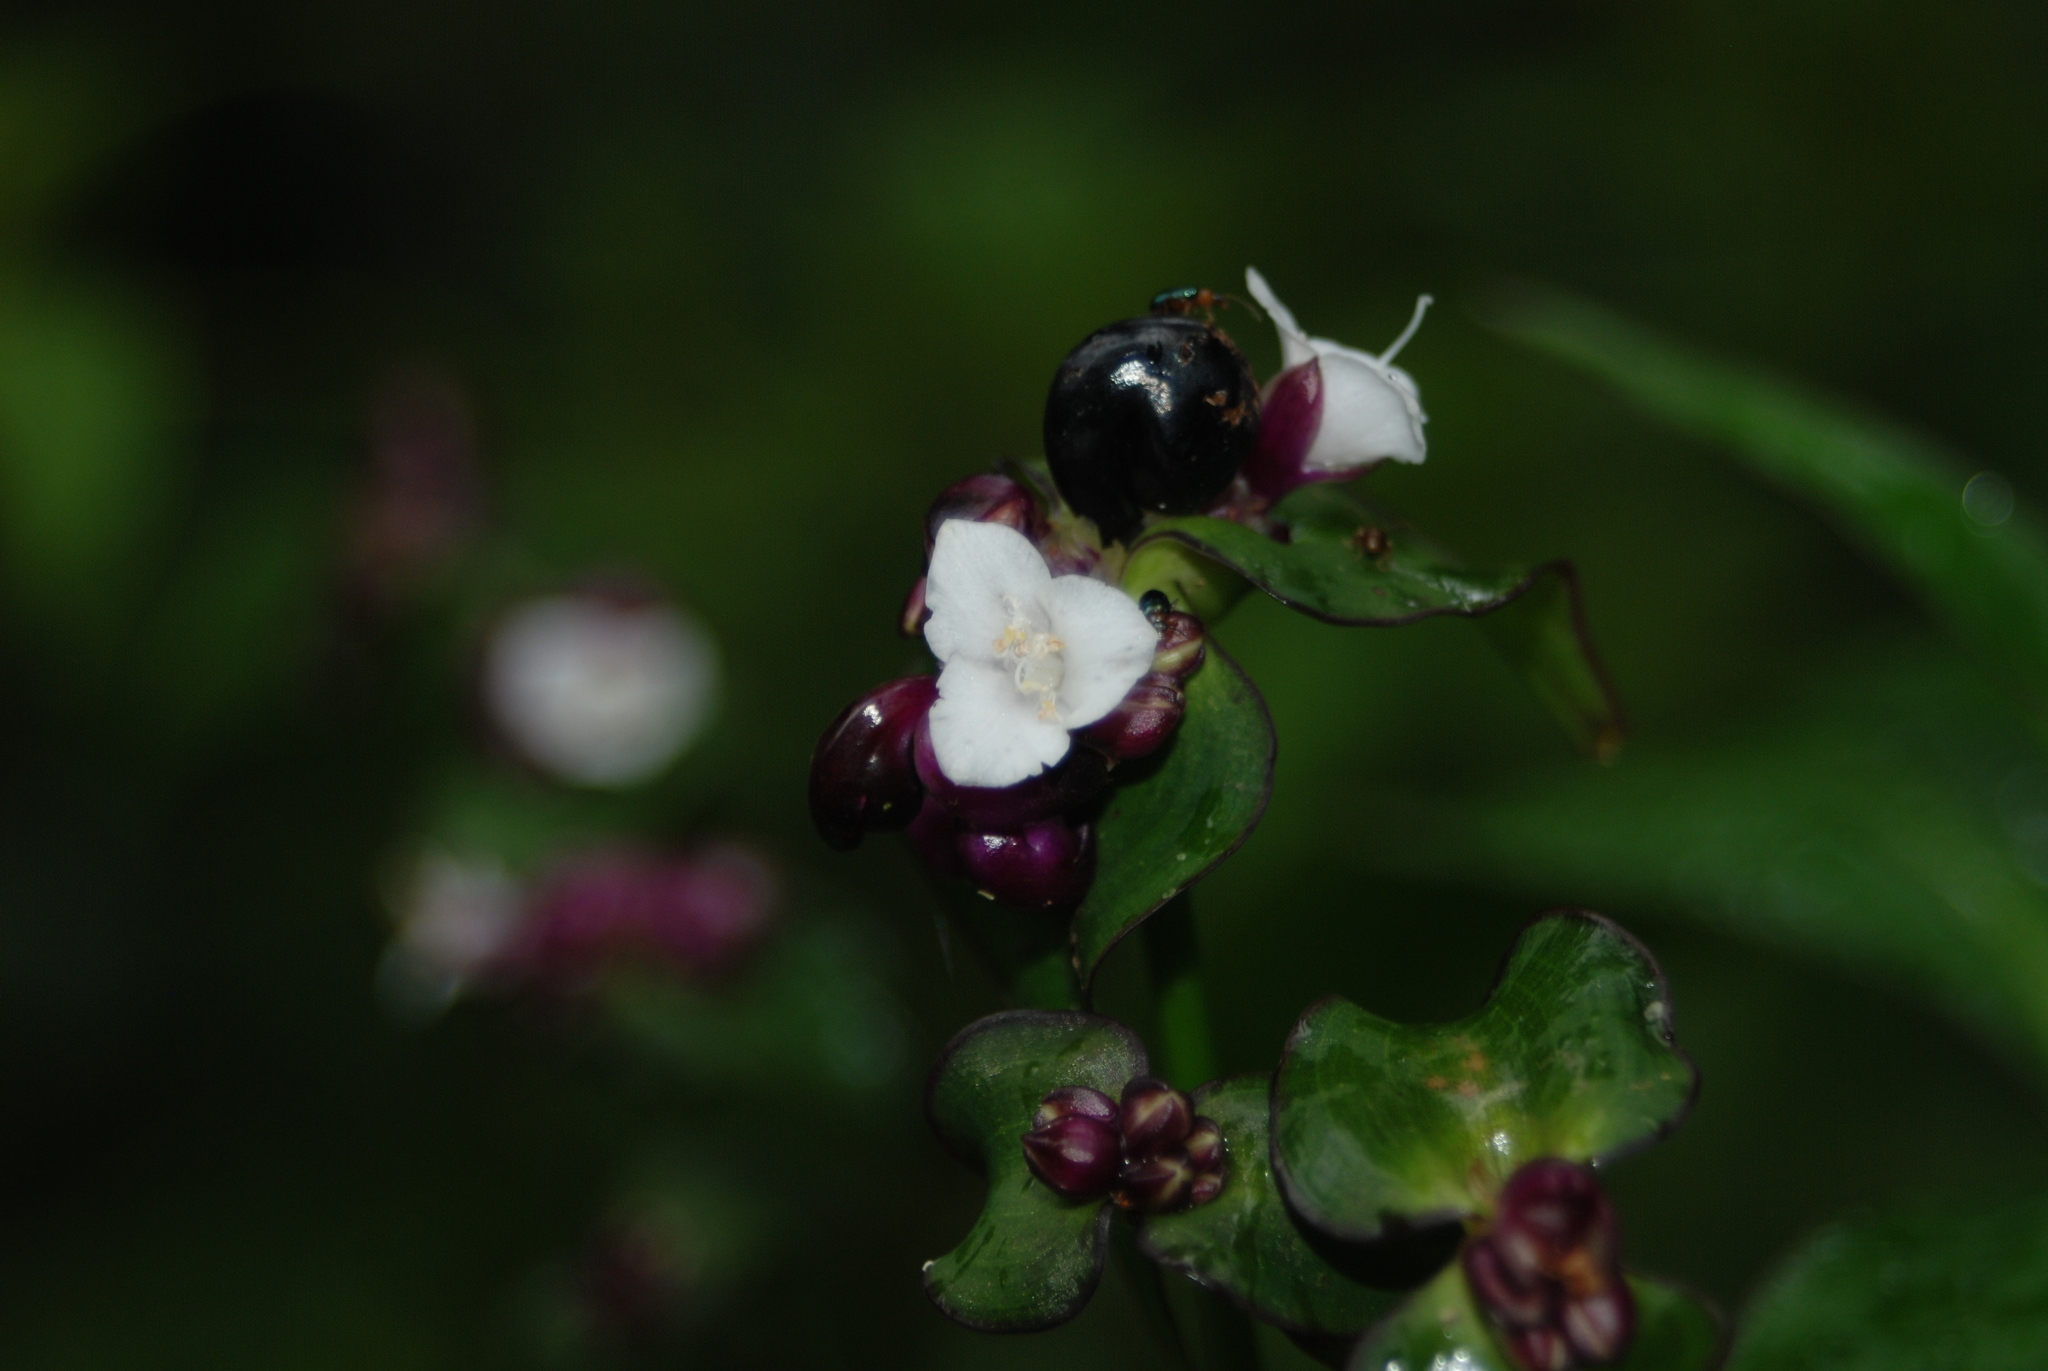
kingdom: Plantae
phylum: Tracheophyta
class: Liliopsida
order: Commelinales
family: Commelinaceae
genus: Tradescantia
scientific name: Tradescantia zanonia
